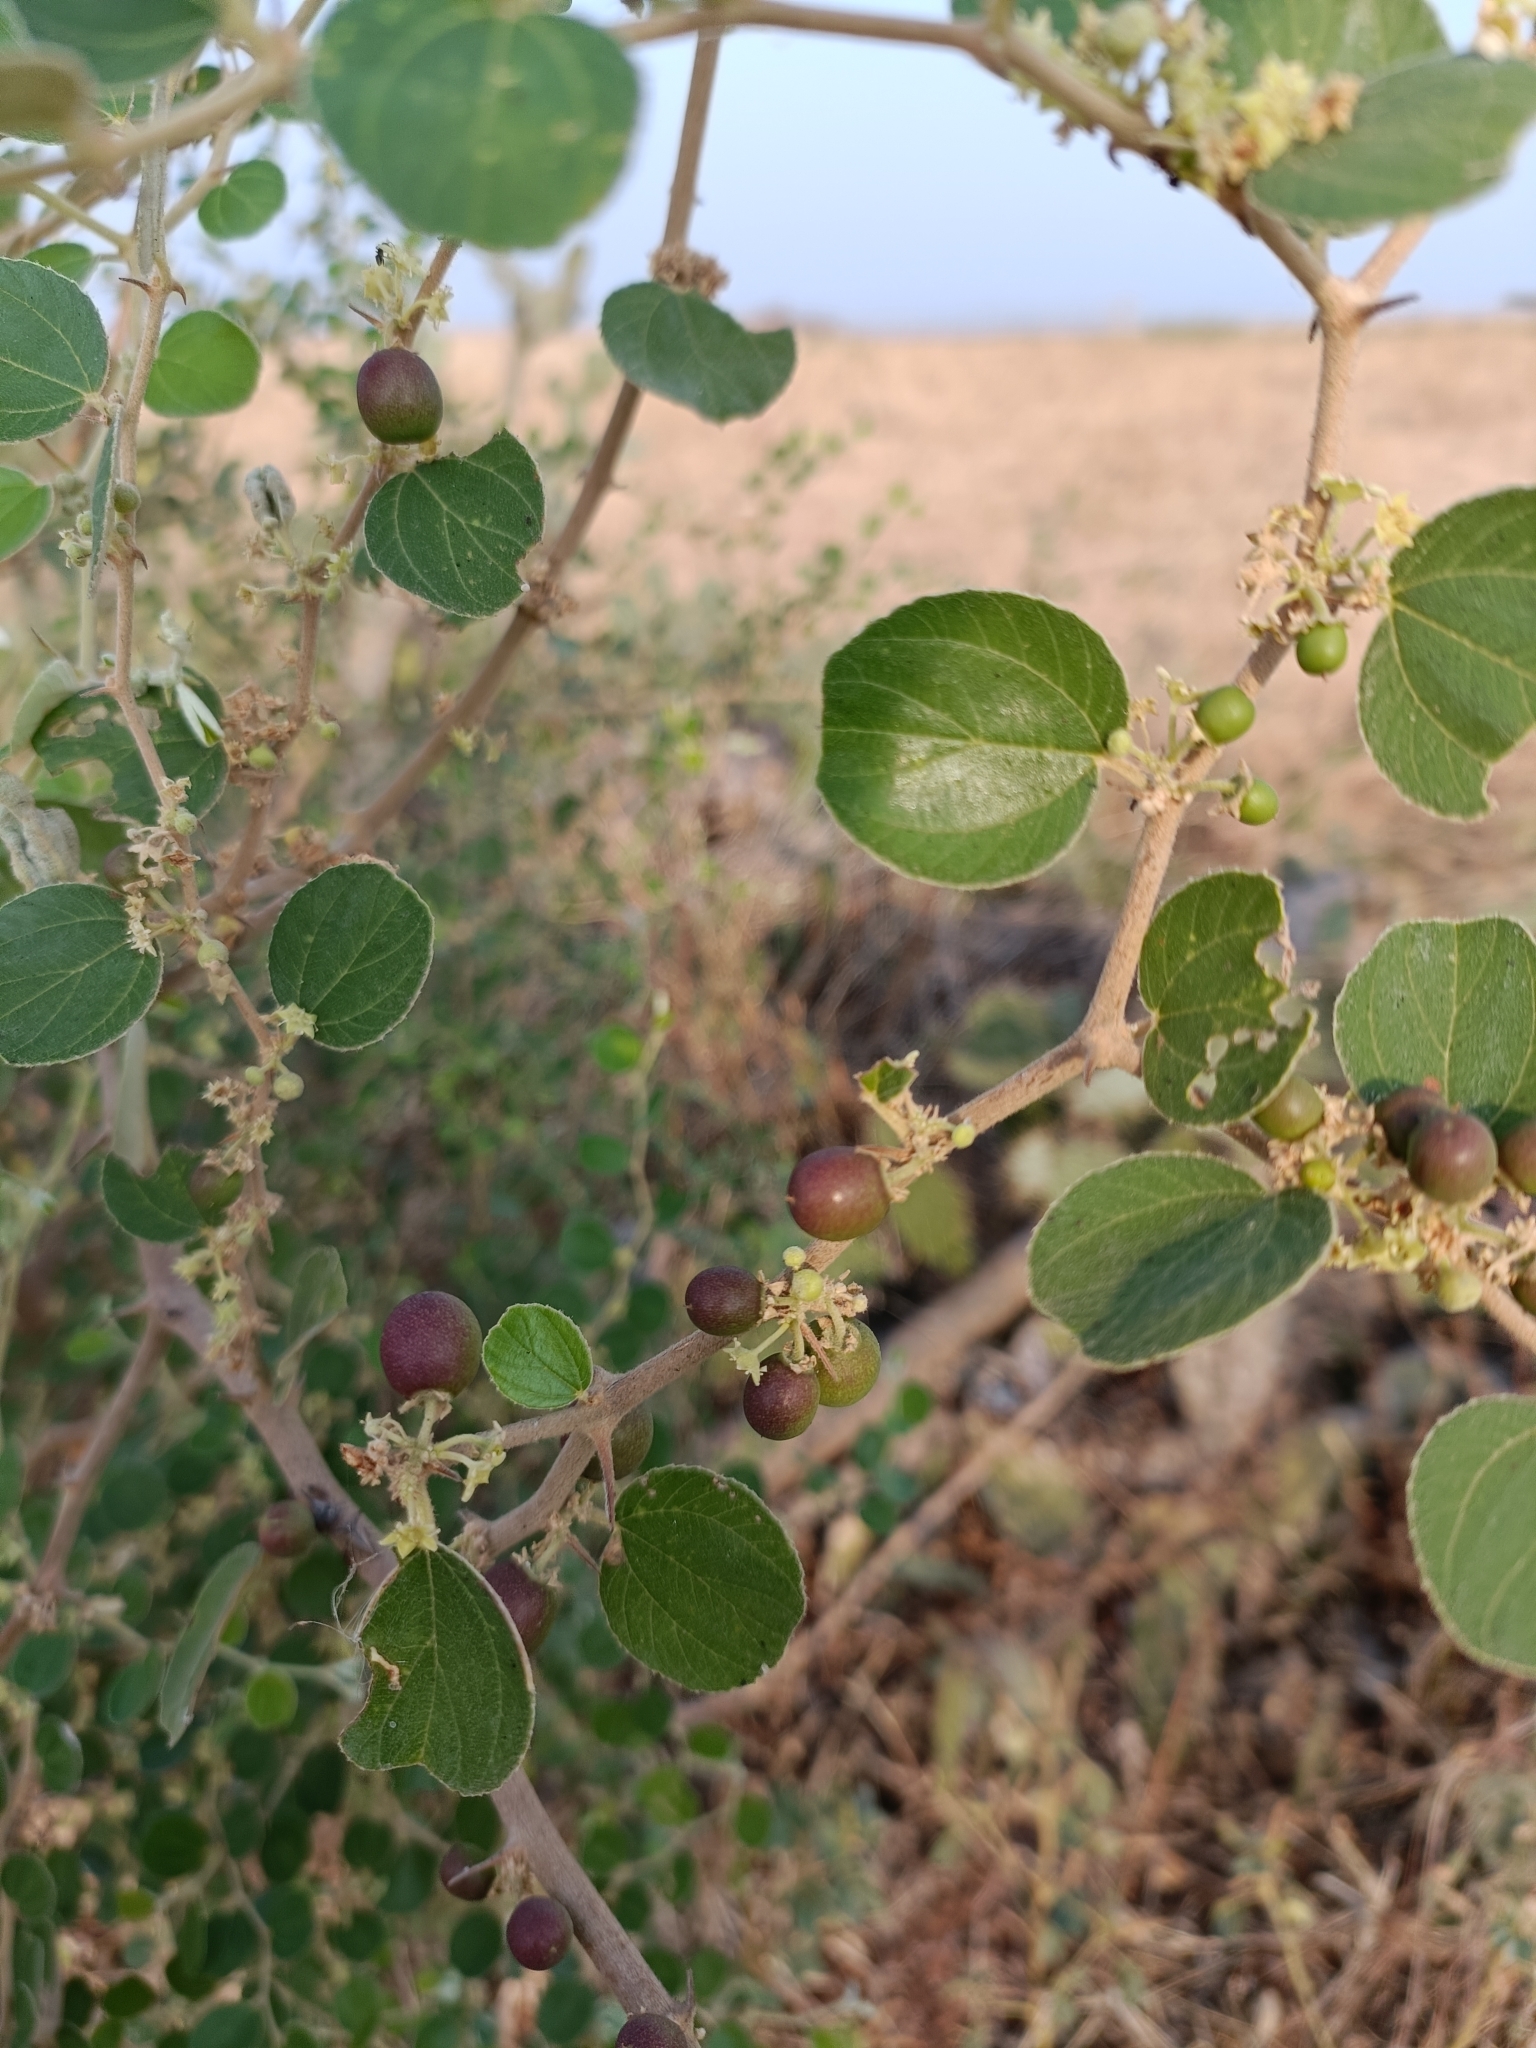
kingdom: Plantae
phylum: Tracheophyta
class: Magnoliopsida
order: Rosales
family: Rhamnaceae
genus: Ziziphus
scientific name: Ziziphus nummularia
